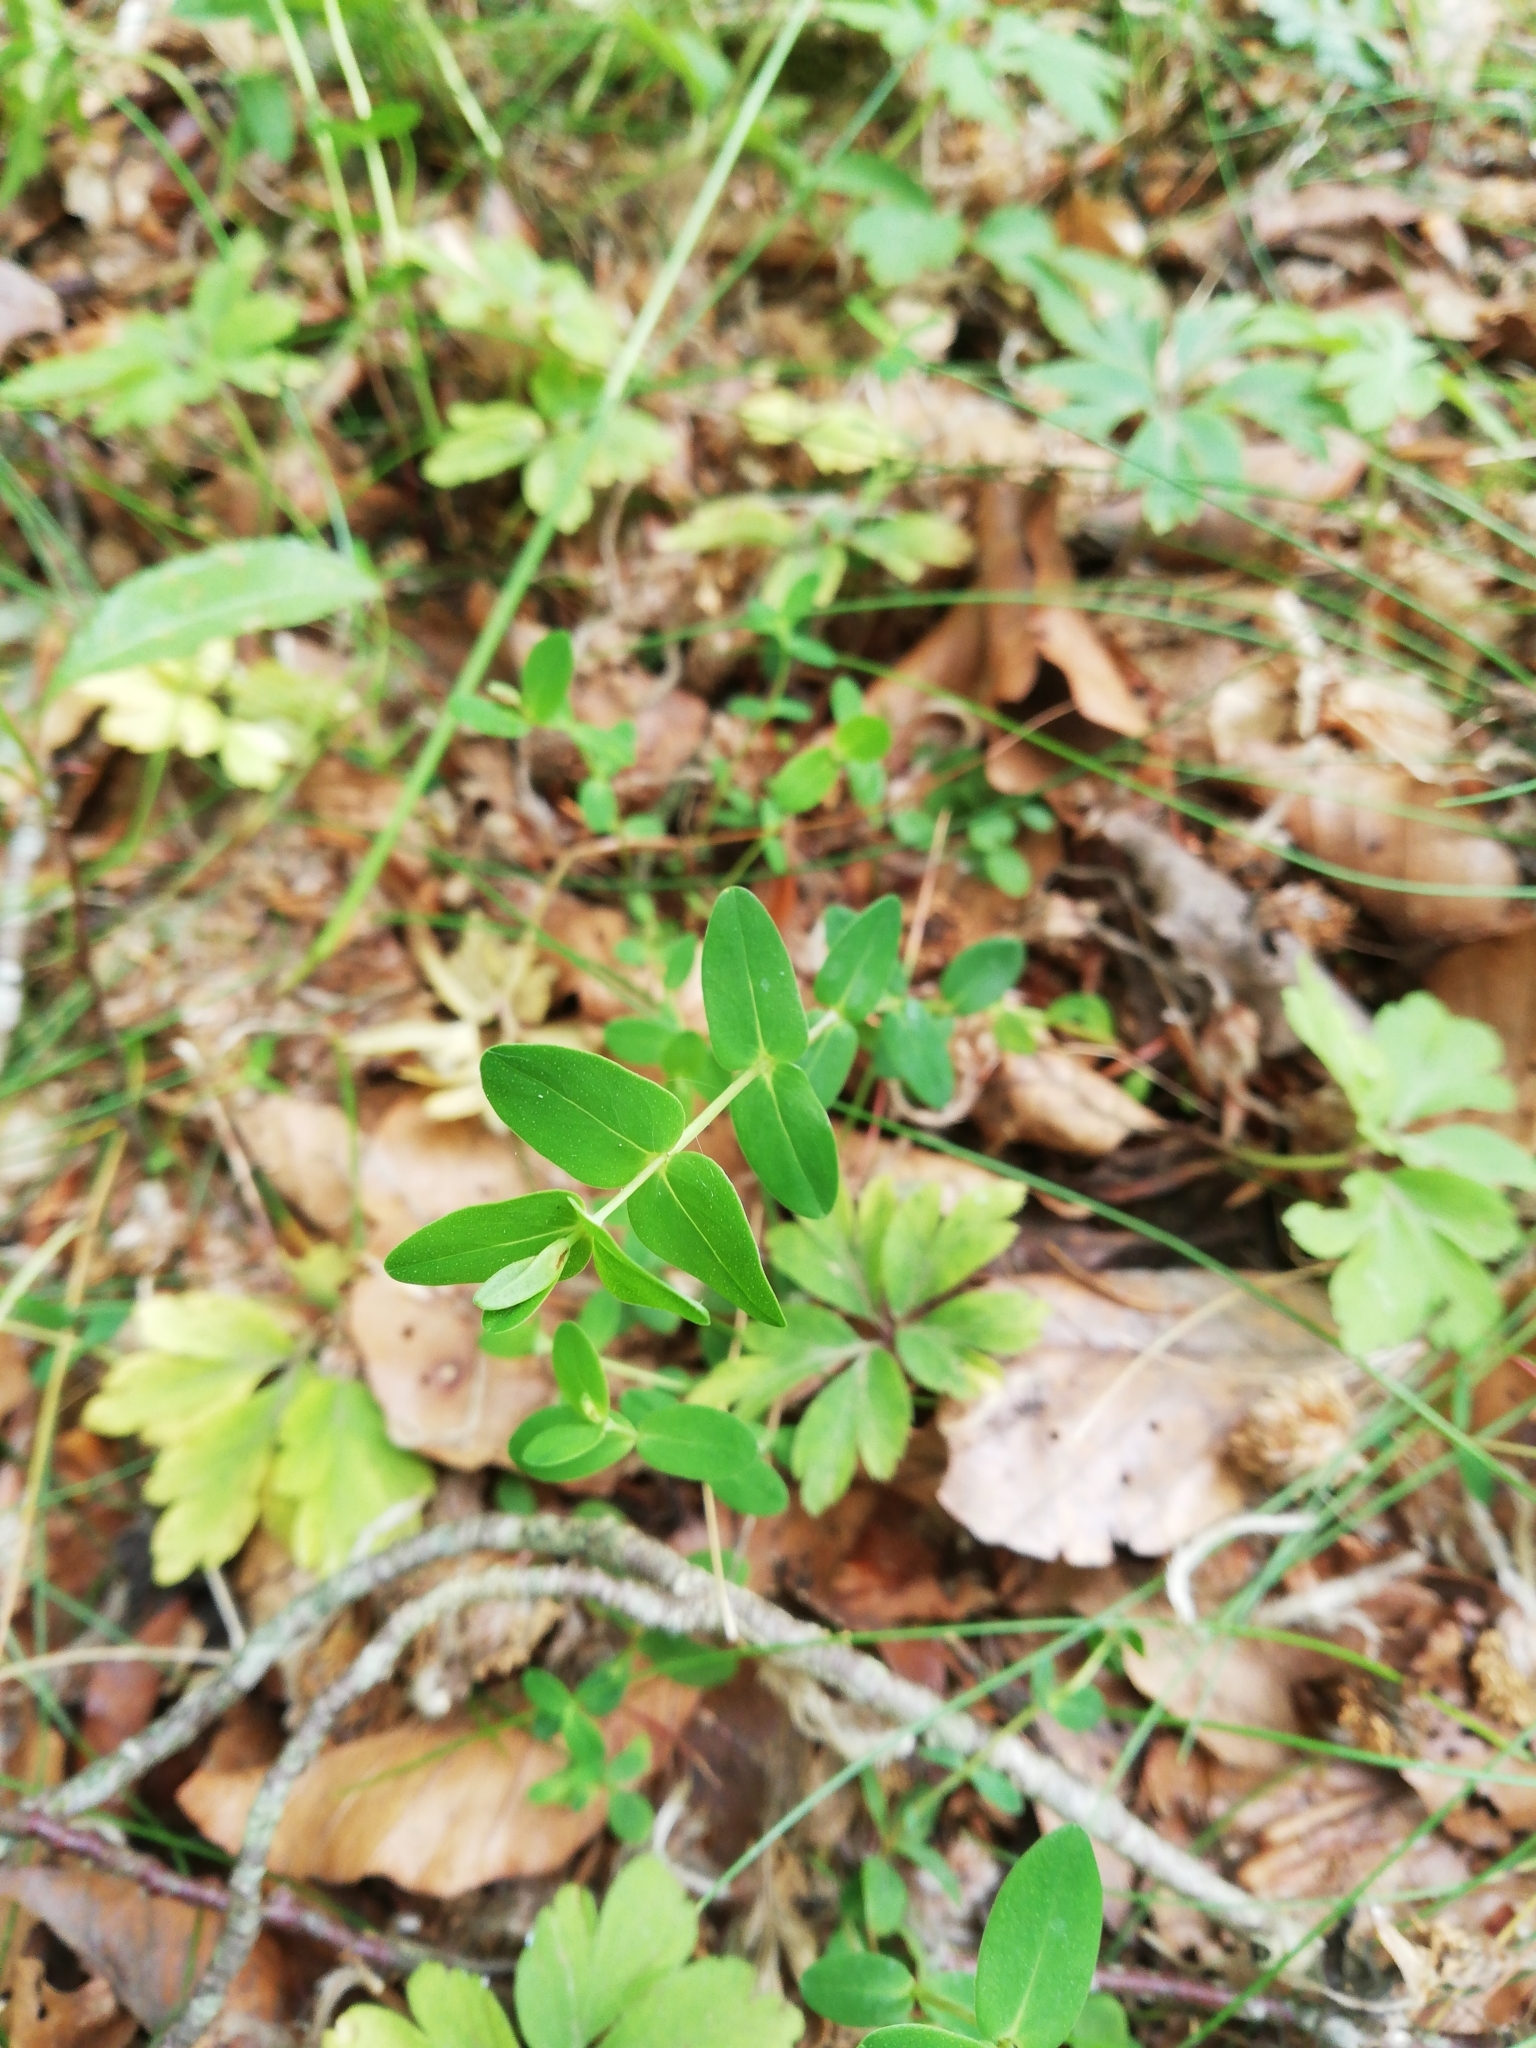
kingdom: Plantae
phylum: Tracheophyta
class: Magnoliopsida
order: Malpighiales
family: Hypericaceae
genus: Hypericum
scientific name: Hypericum pulchrum
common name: Slender st. john's-wort
